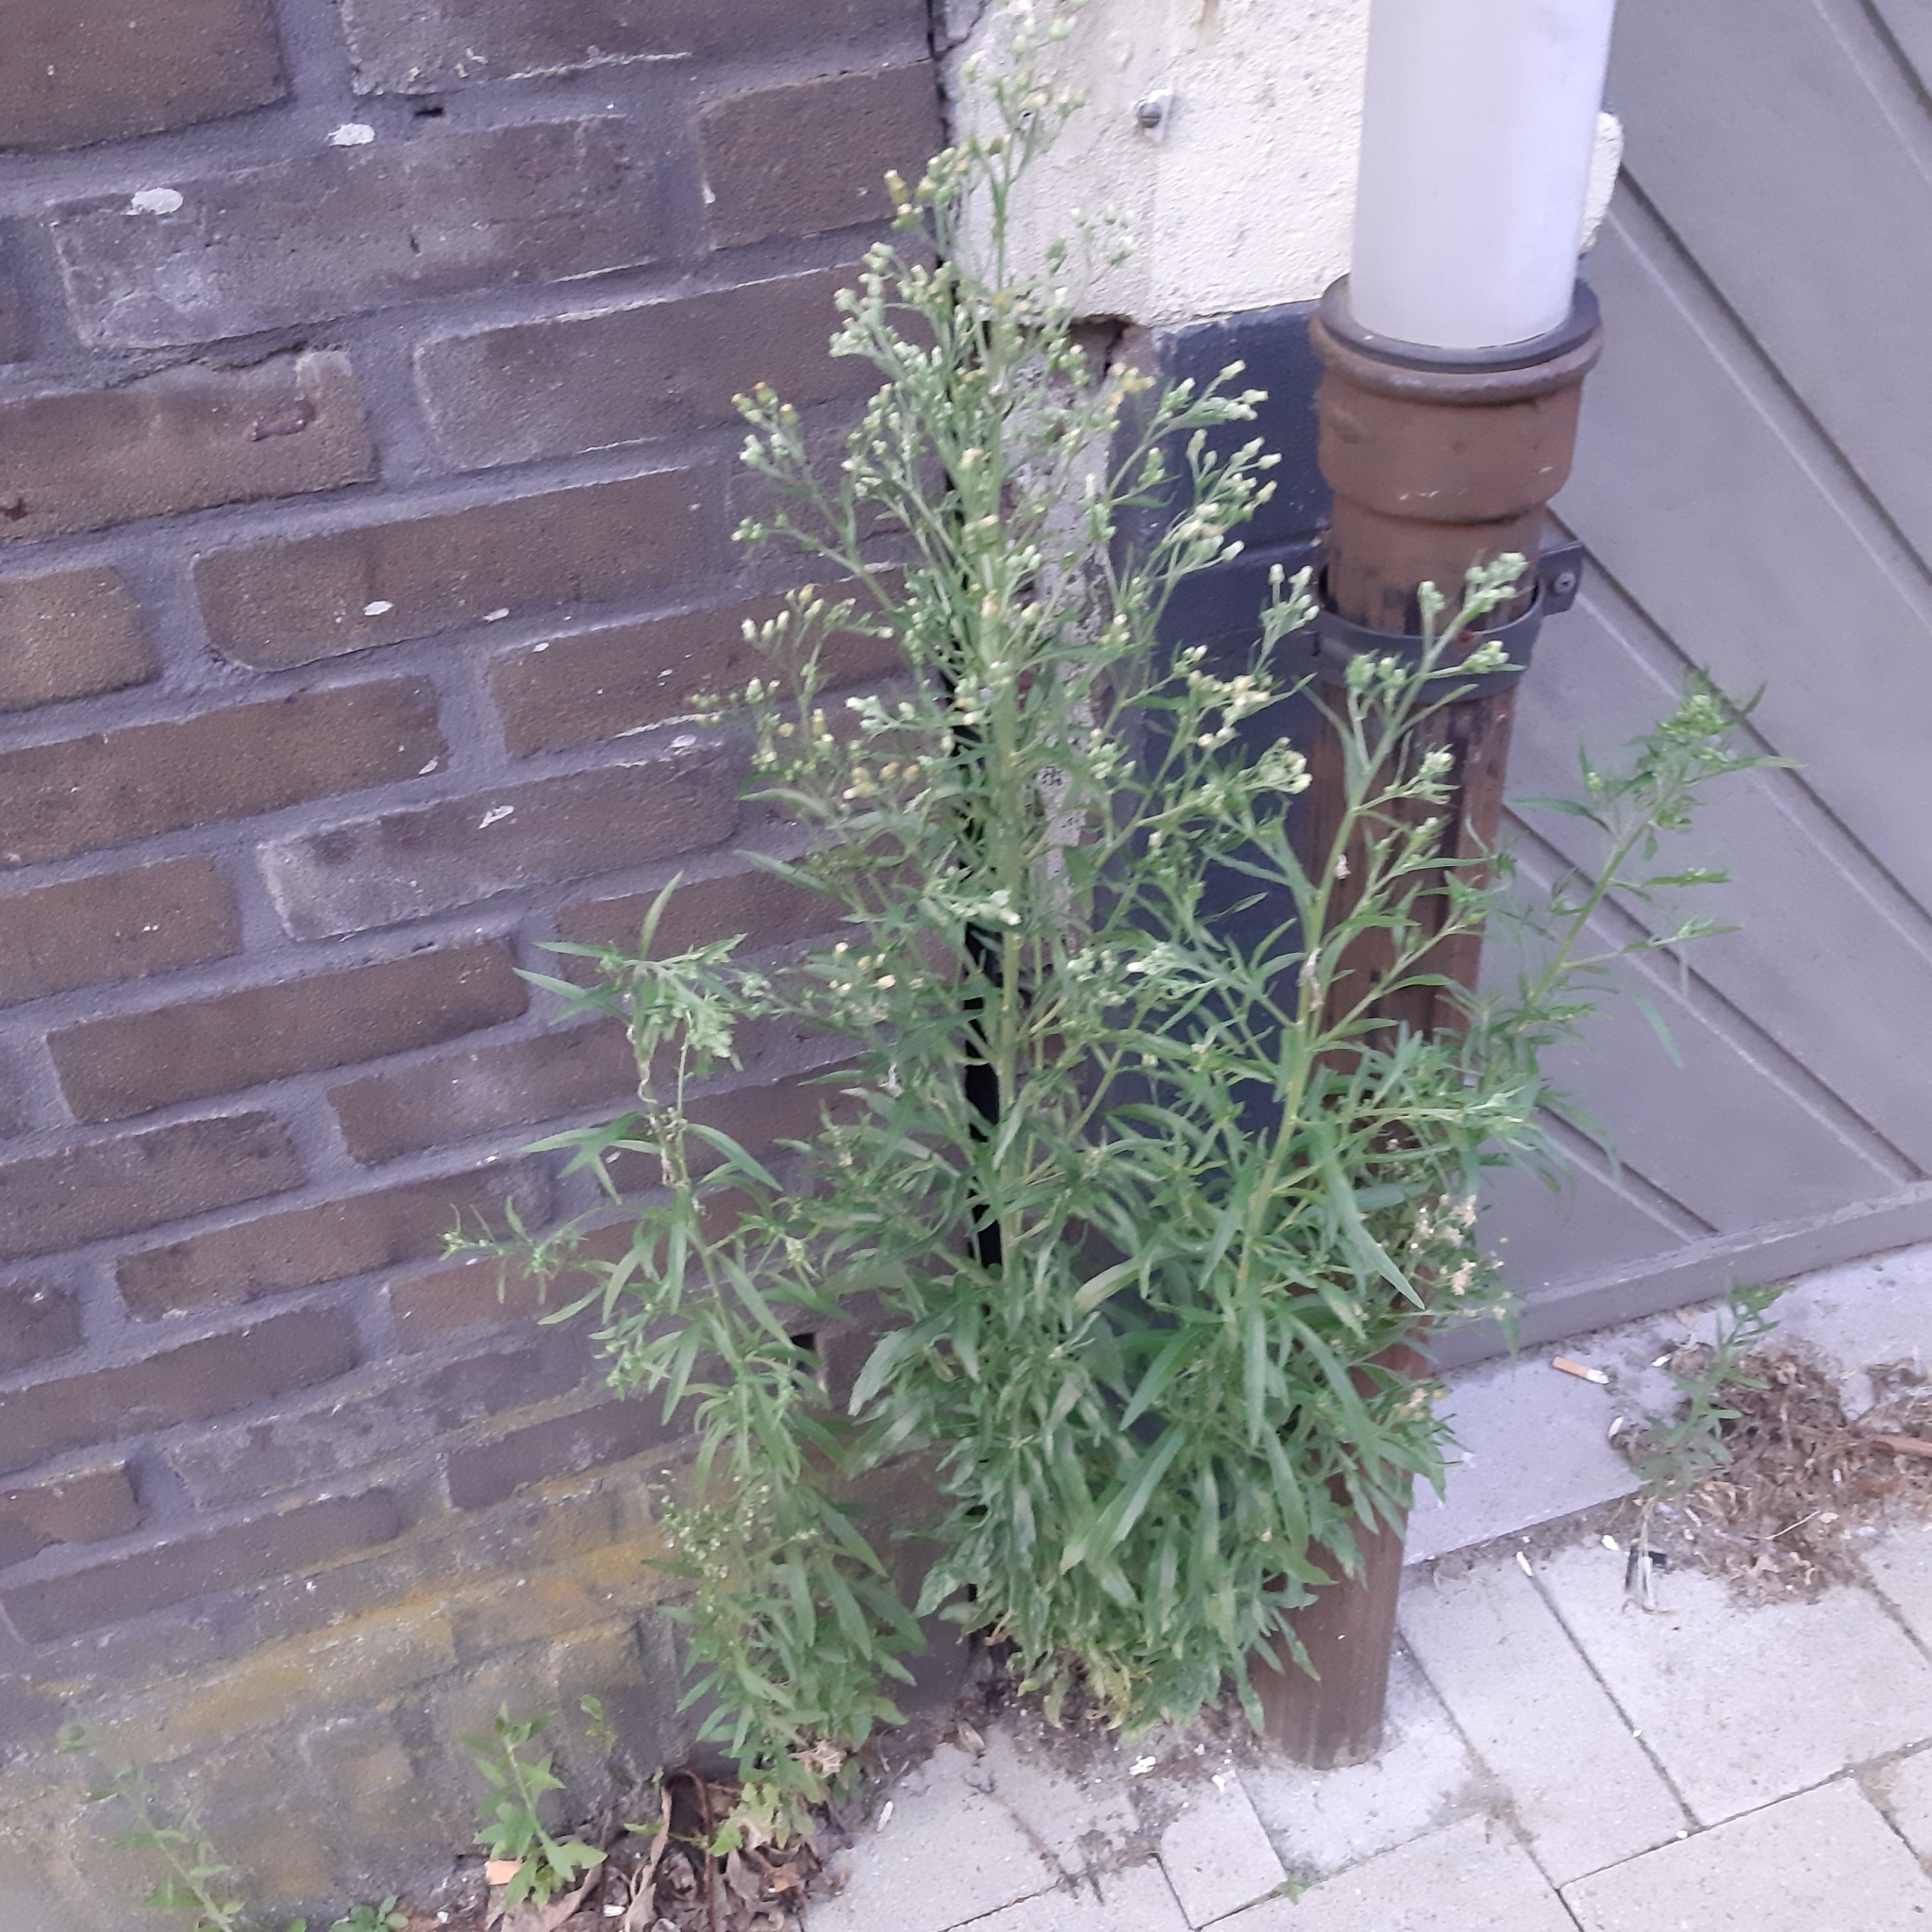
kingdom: Plantae
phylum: Tracheophyta
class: Magnoliopsida
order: Asterales
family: Asteraceae
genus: Erigeron
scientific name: Erigeron sumatrensis
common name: Daisy
